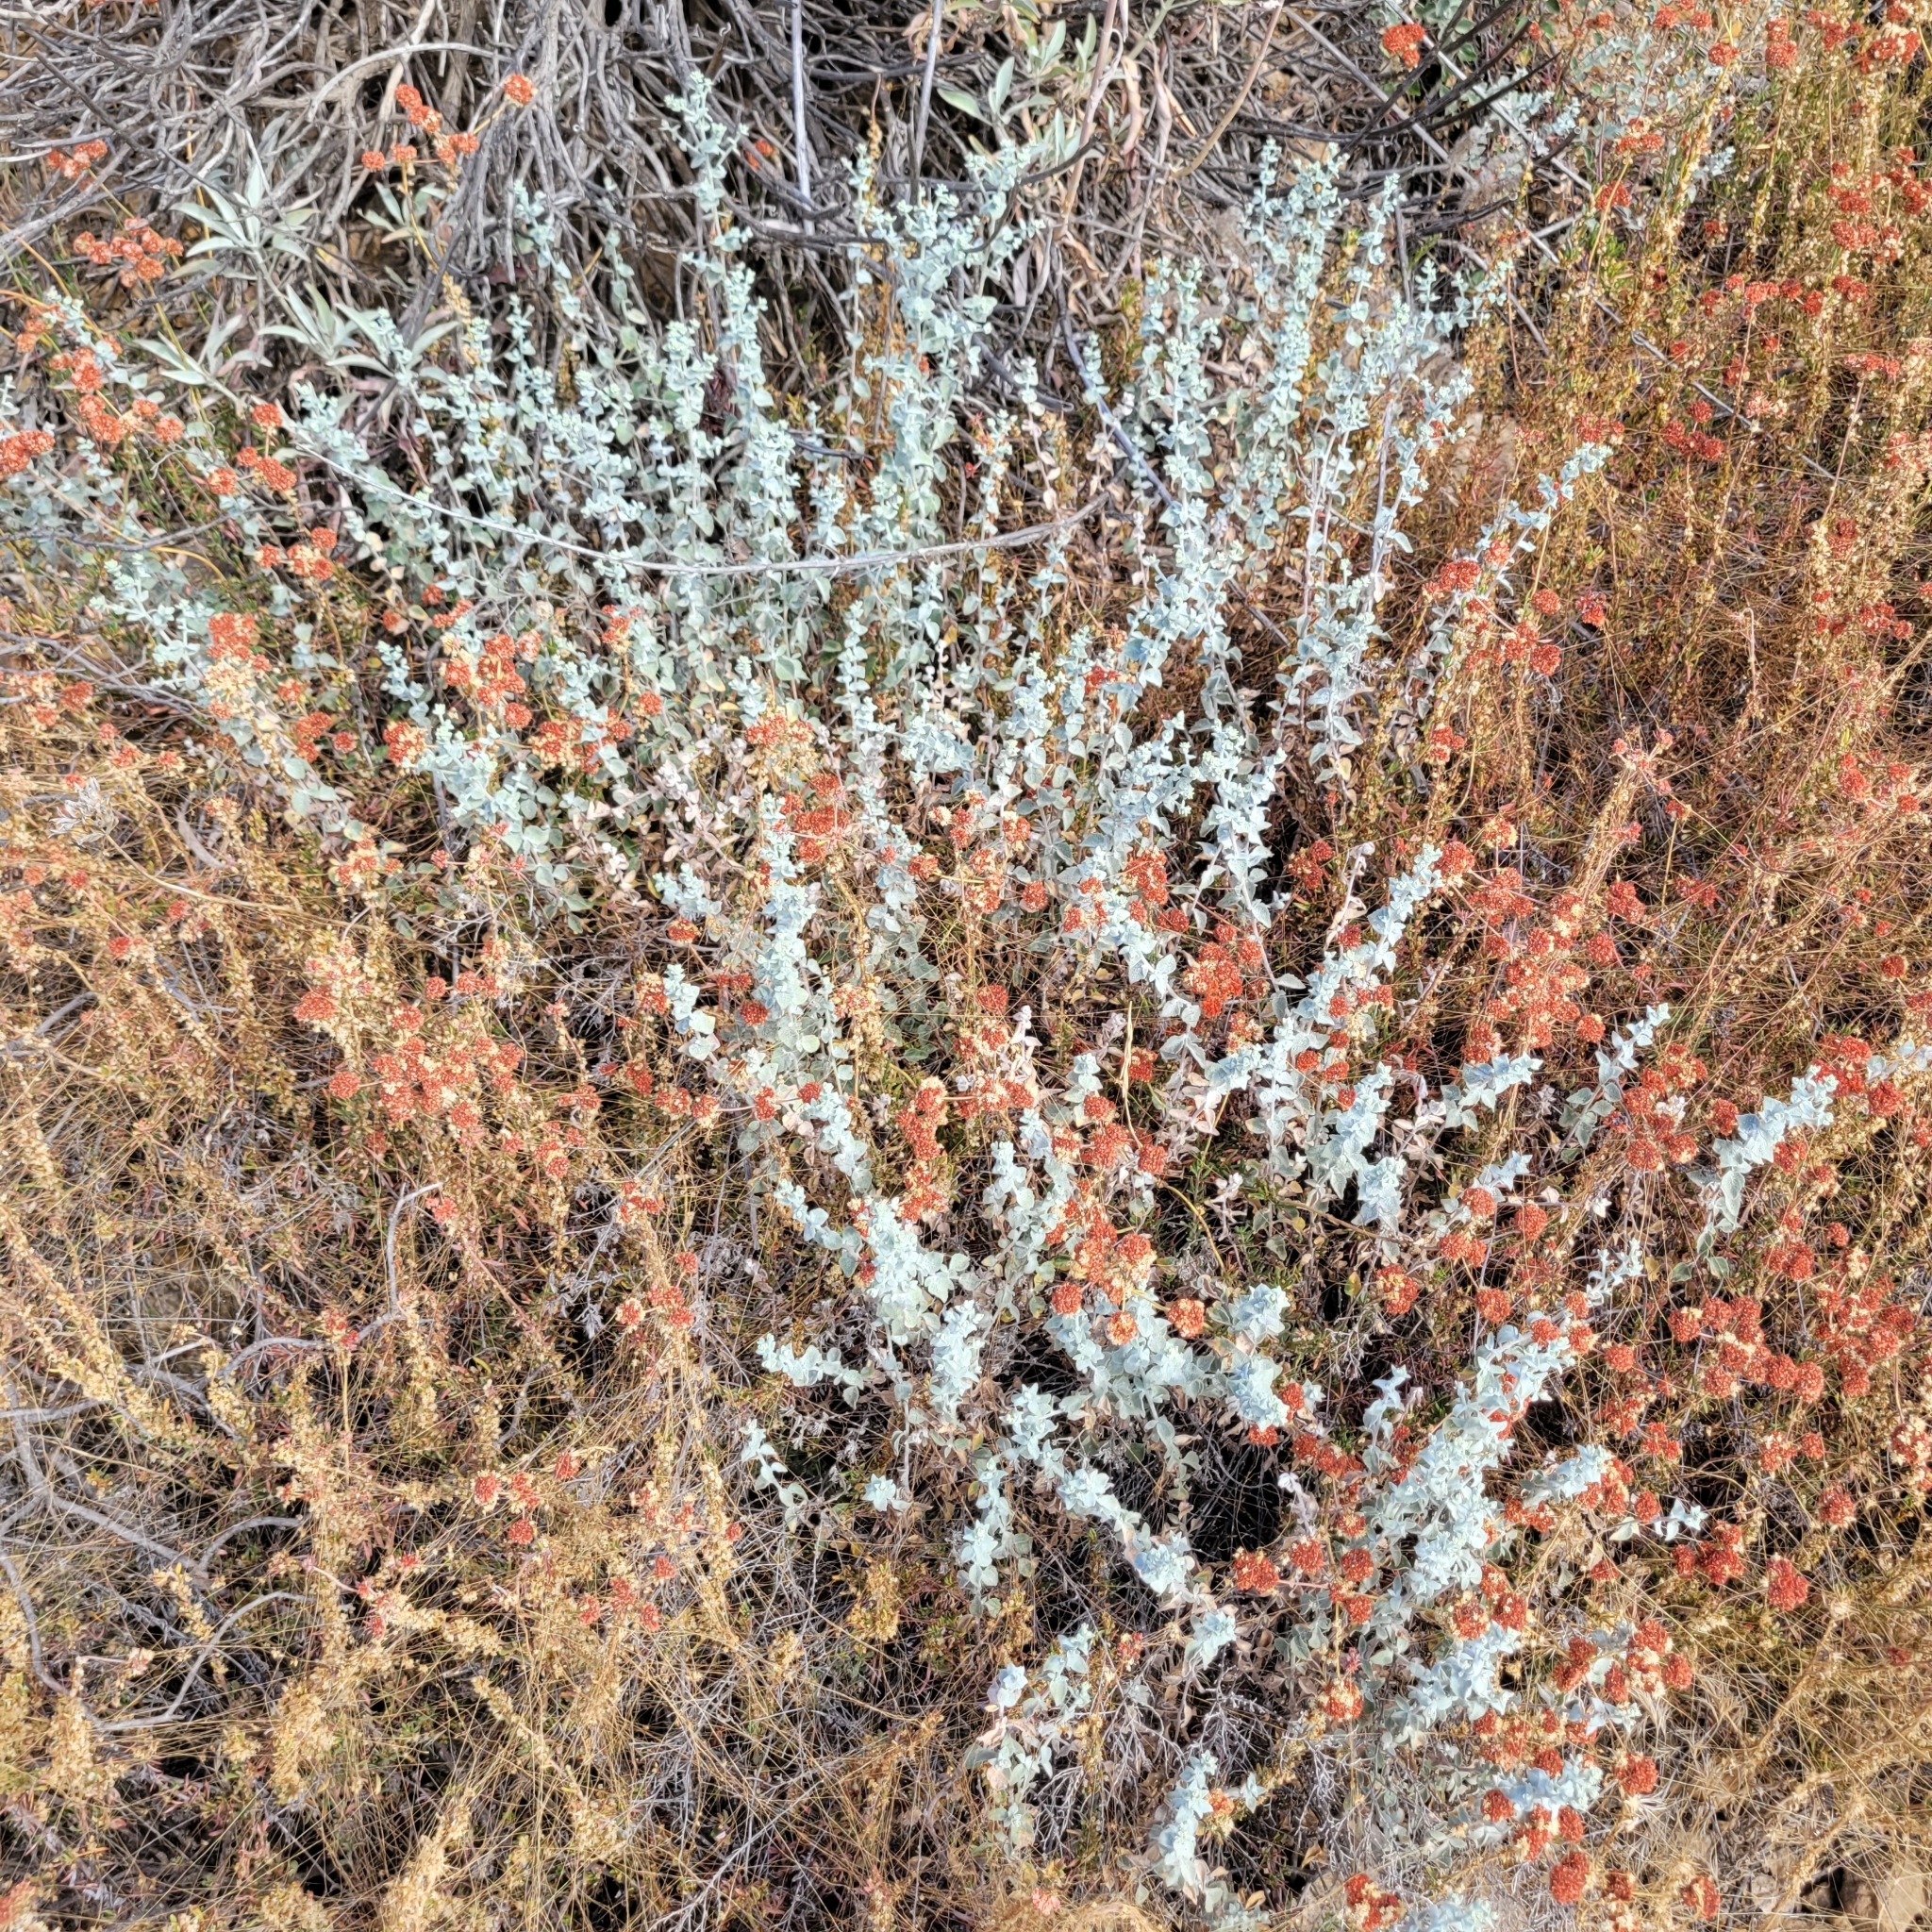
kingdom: Plantae
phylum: Tracheophyta
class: Magnoliopsida
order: Asterales
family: Asteraceae
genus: Brickellia
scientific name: Brickellia nevinii
